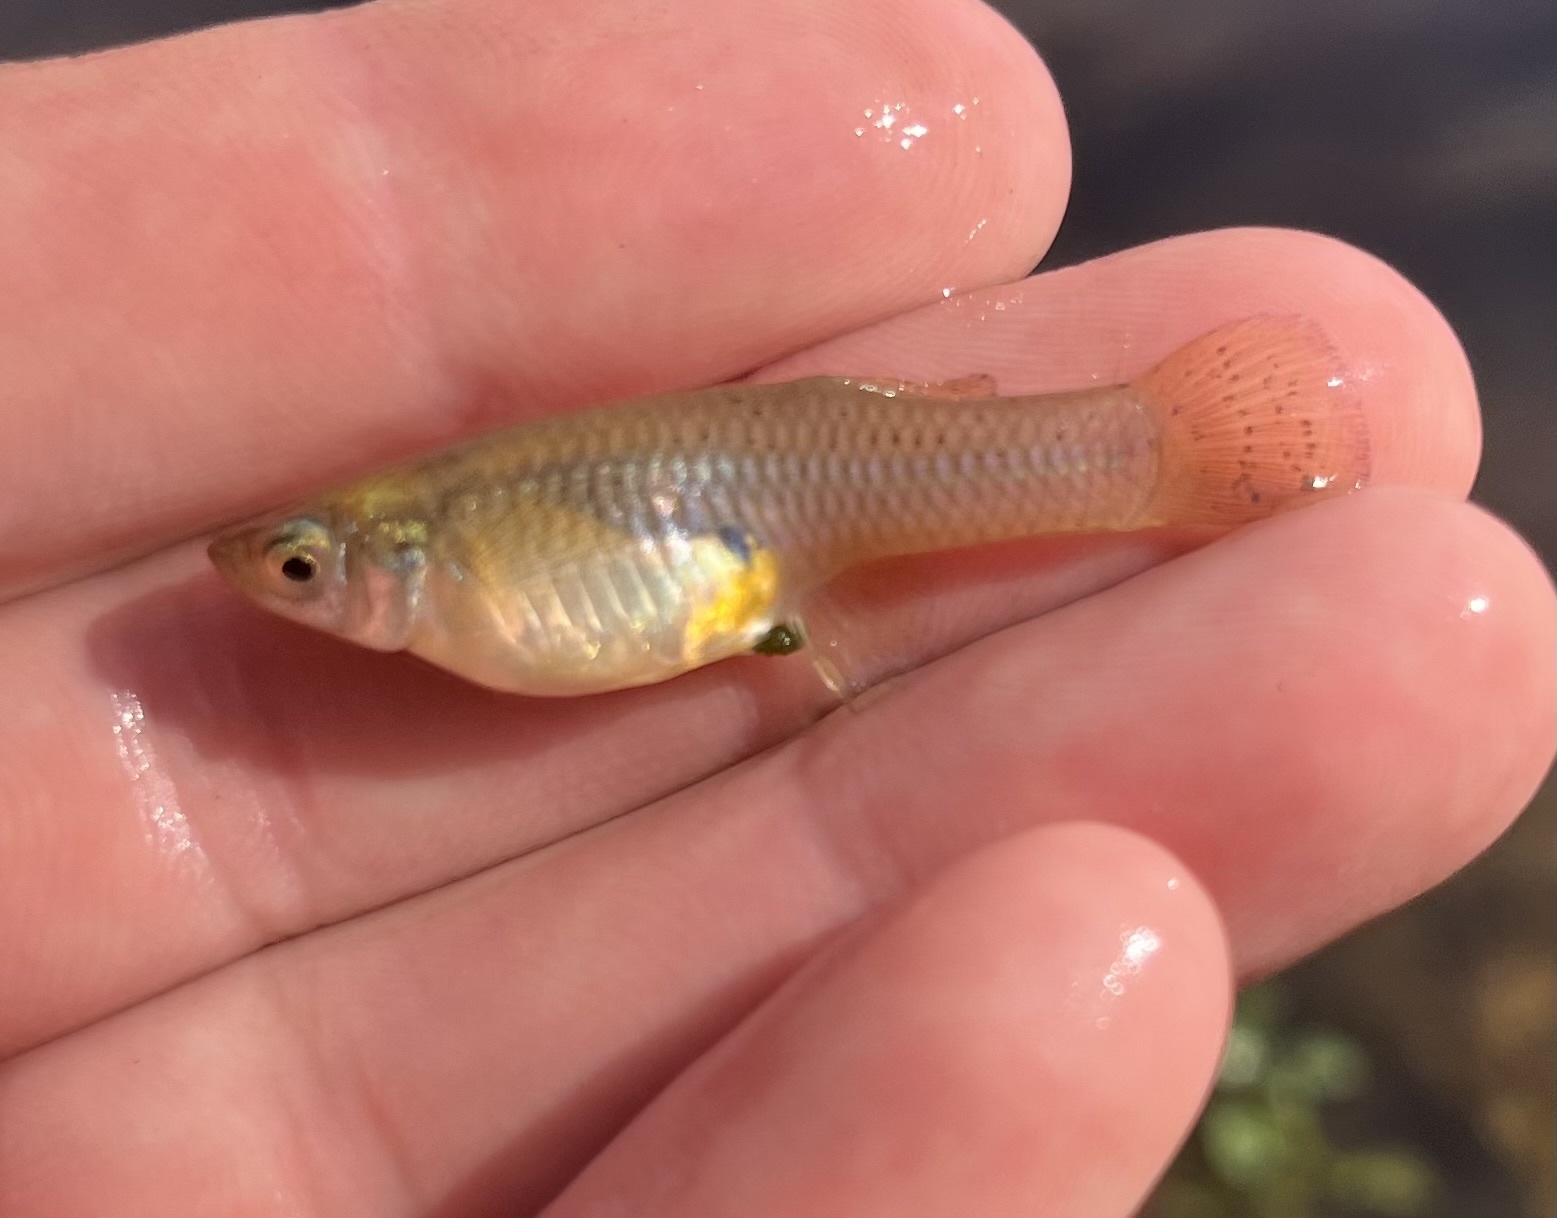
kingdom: Animalia
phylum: Chordata
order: Cyprinodontiformes
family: Poeciliidae
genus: Gambusia
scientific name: Gambusia affinis
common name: Mosquitofish
